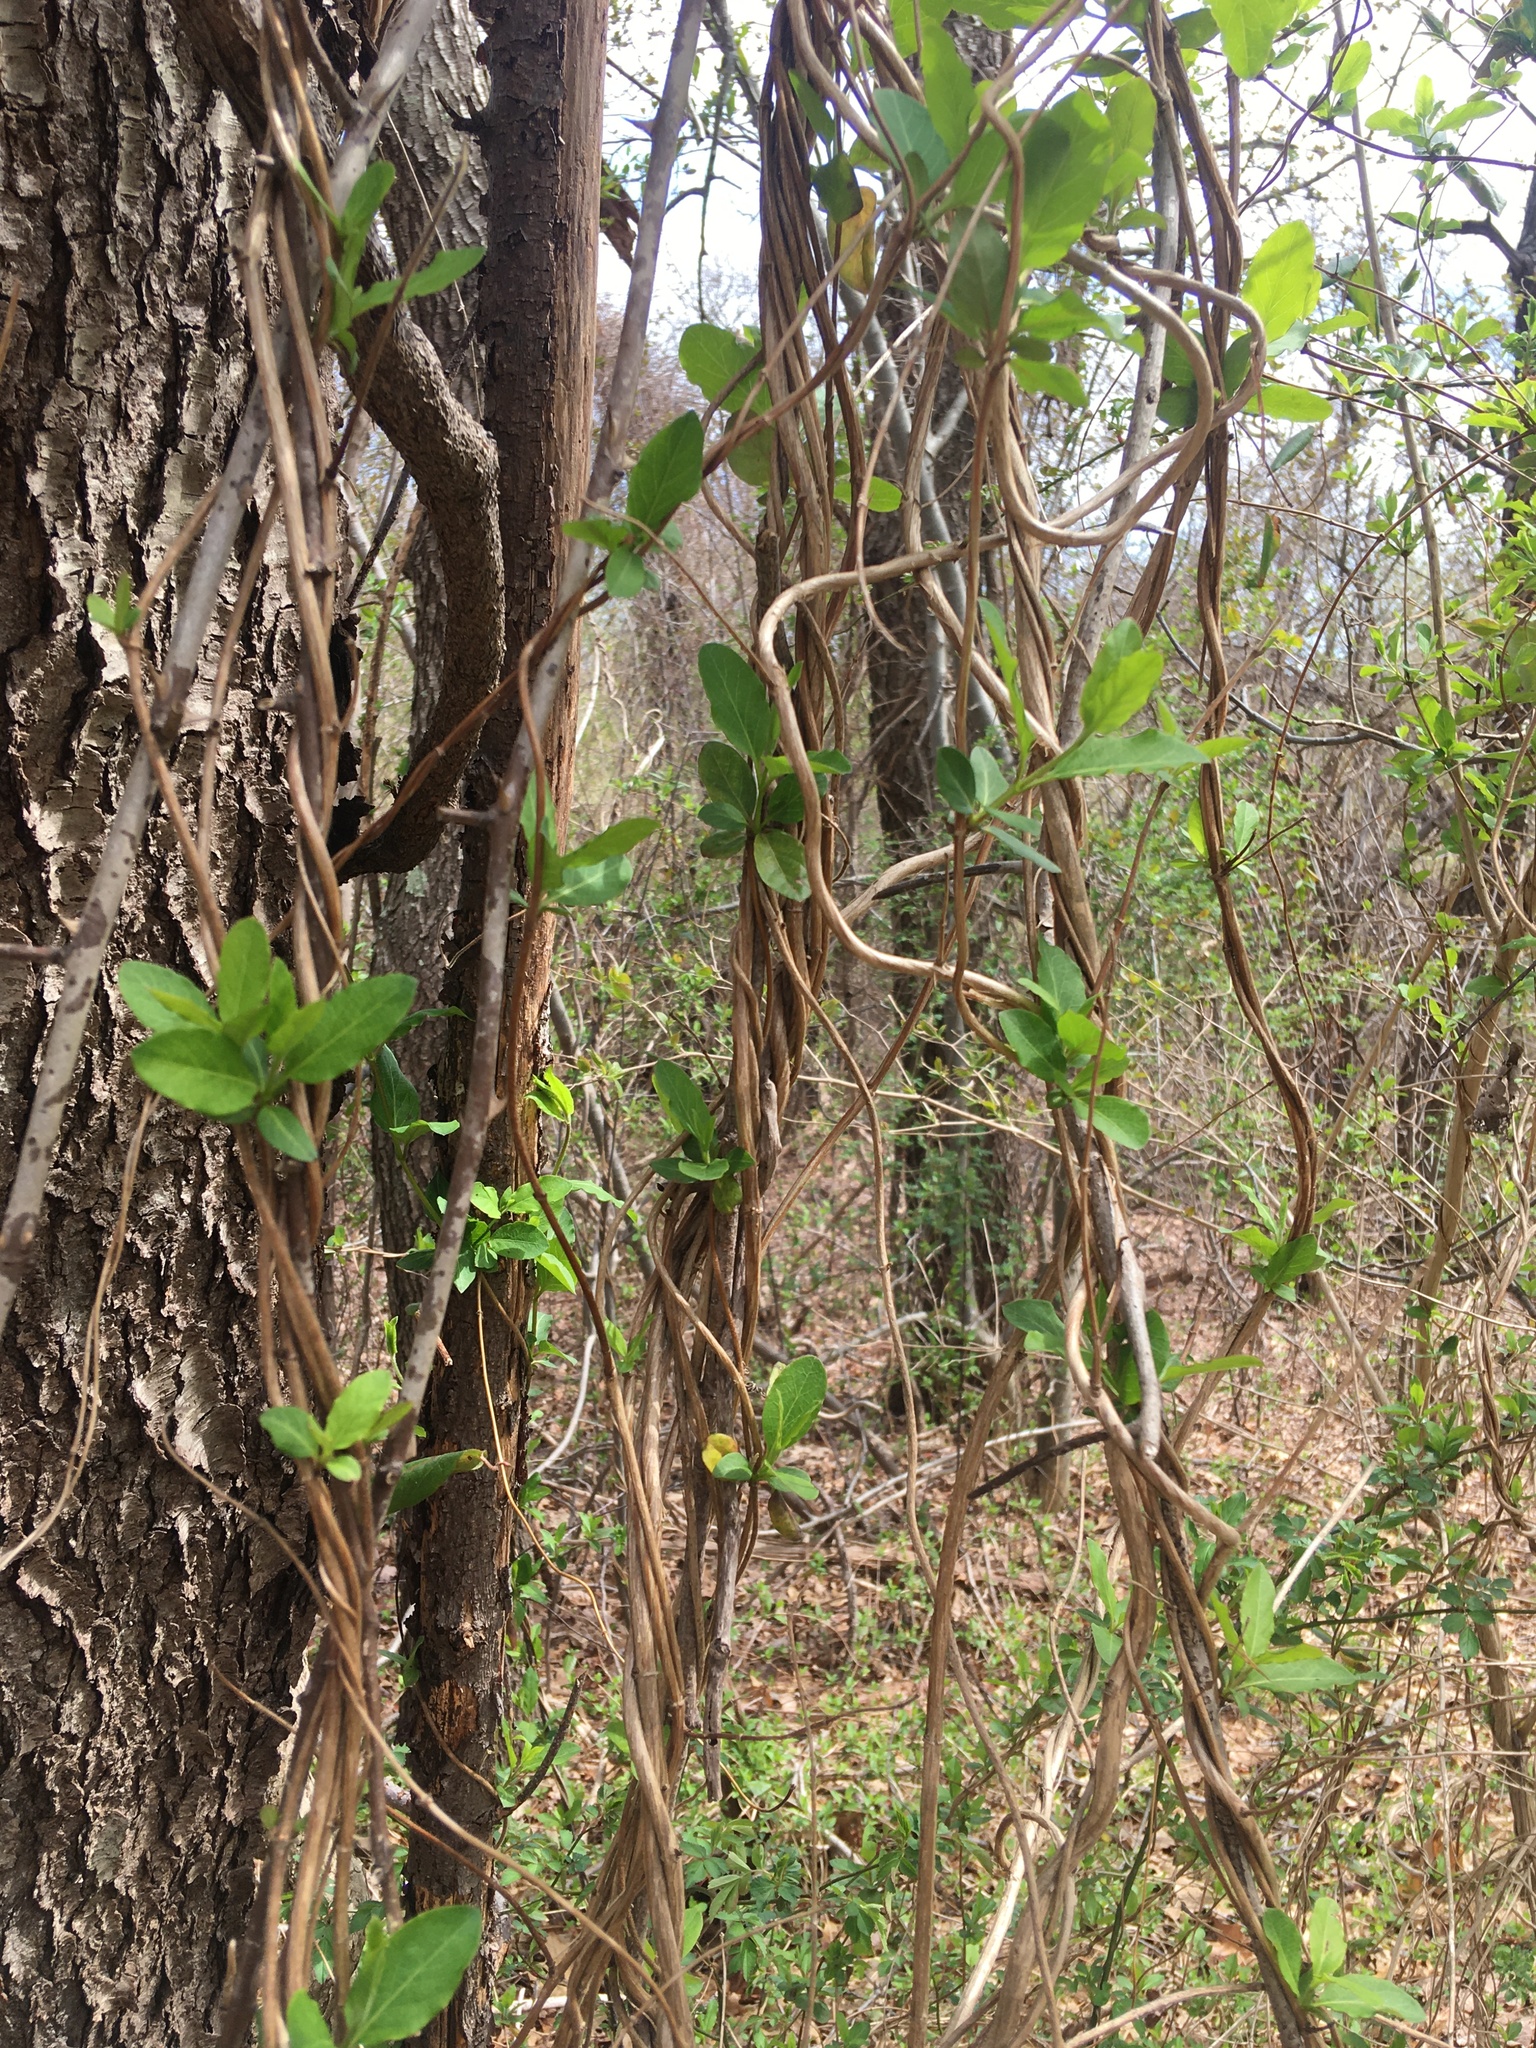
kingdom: Plantae
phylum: Tracheophyta
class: Magnoliopsida
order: Dipsacales
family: Caprifoliaceae
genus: Lonicera
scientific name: Lonicera japonica
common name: Japanese honeysuckle
